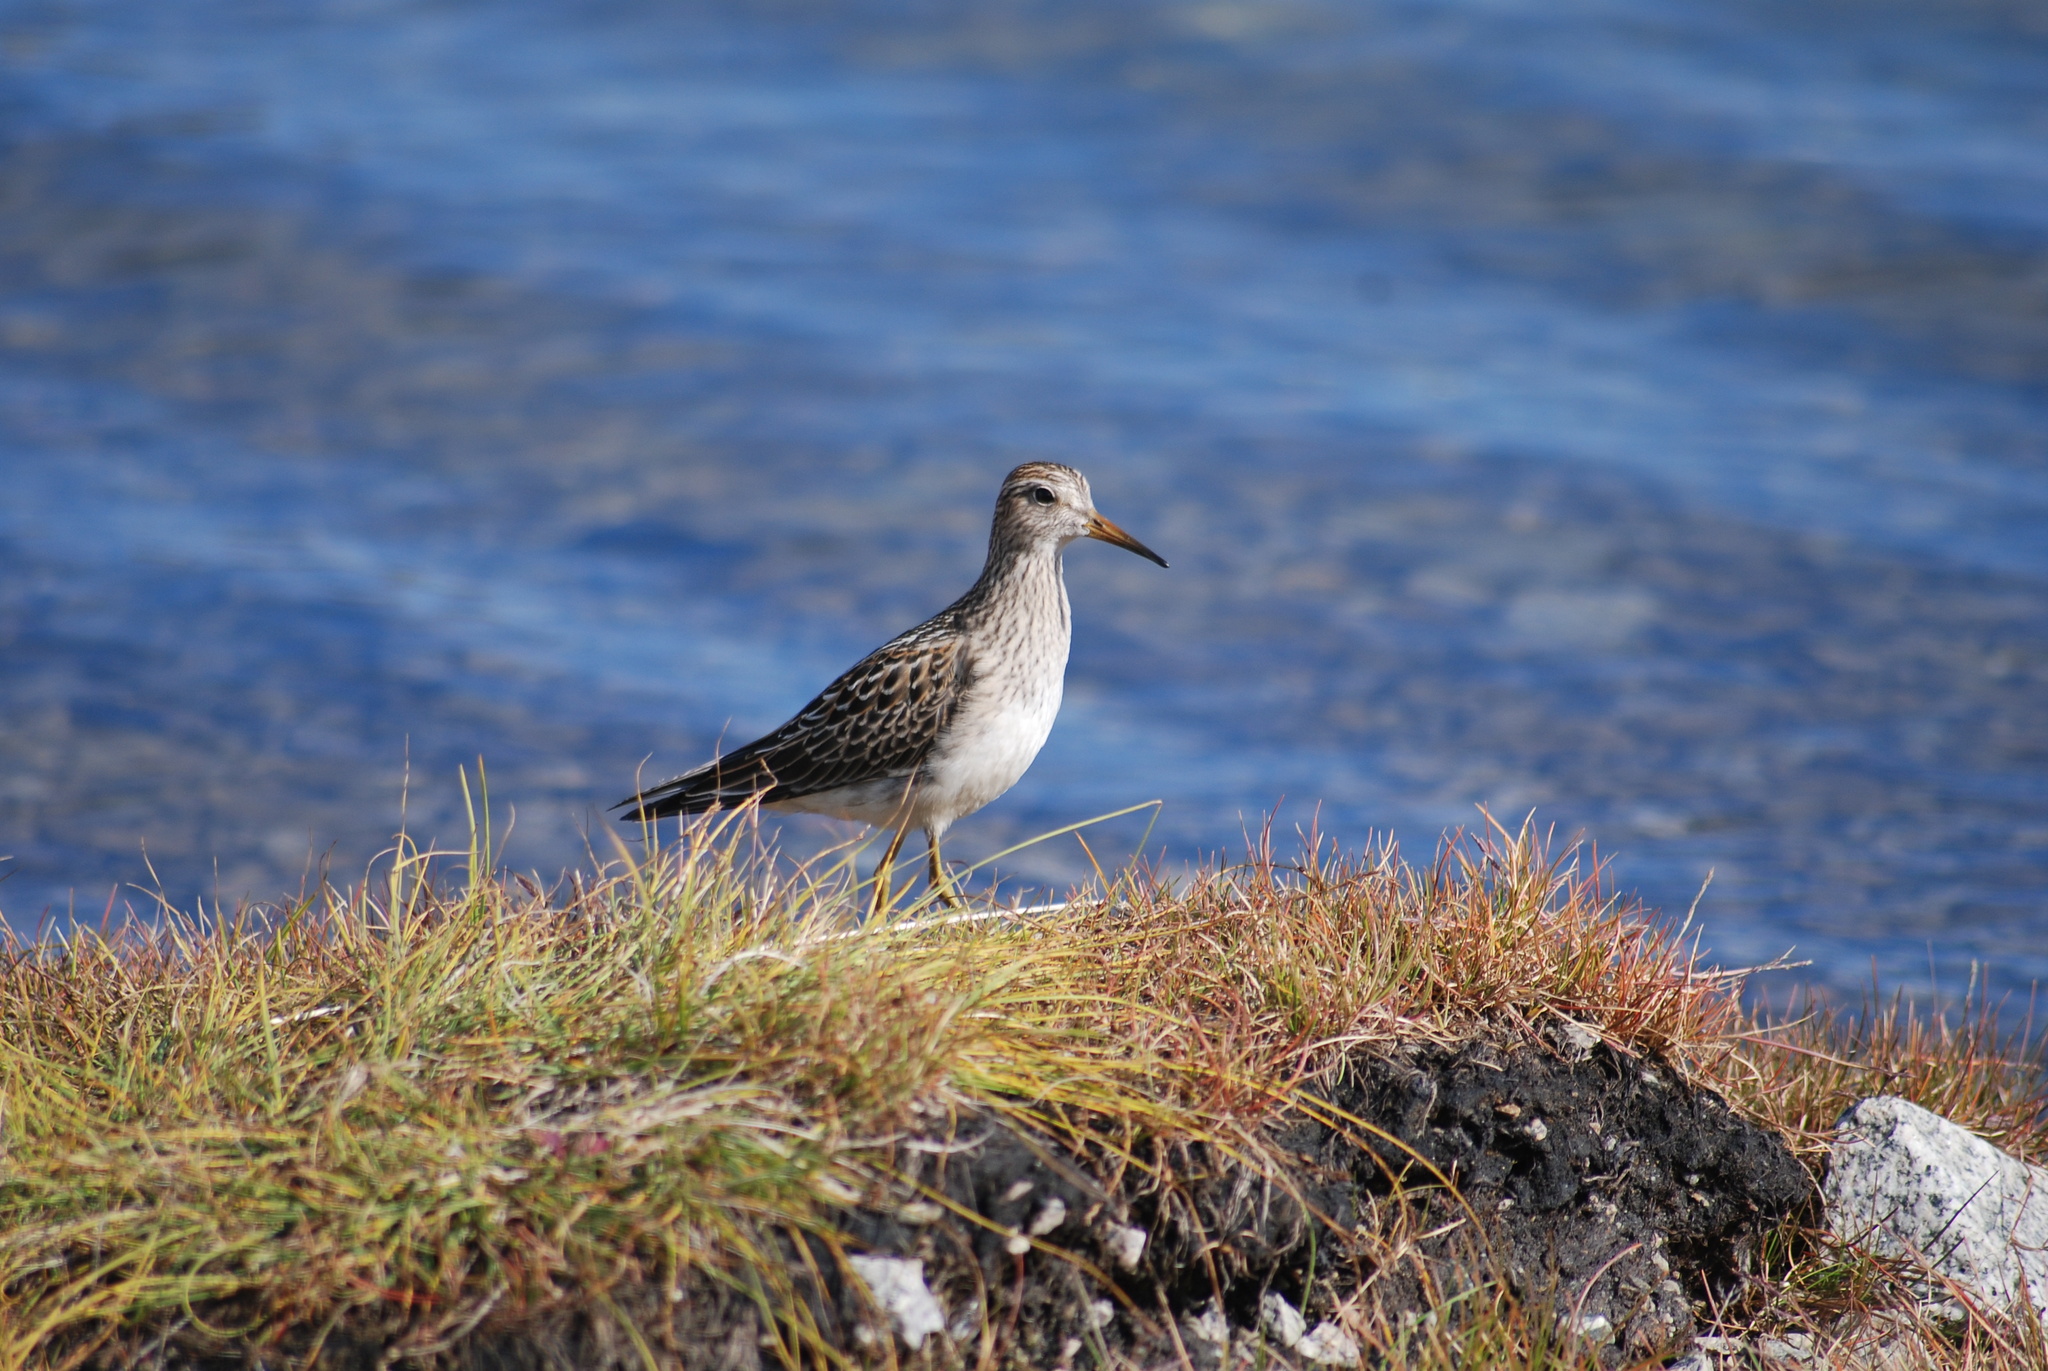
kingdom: Animalia
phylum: Chordata
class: Aves
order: Charadriiformes
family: Scolopacidae
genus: Calidris
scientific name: Calidris melanotos
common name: Pectoral sandpiper
